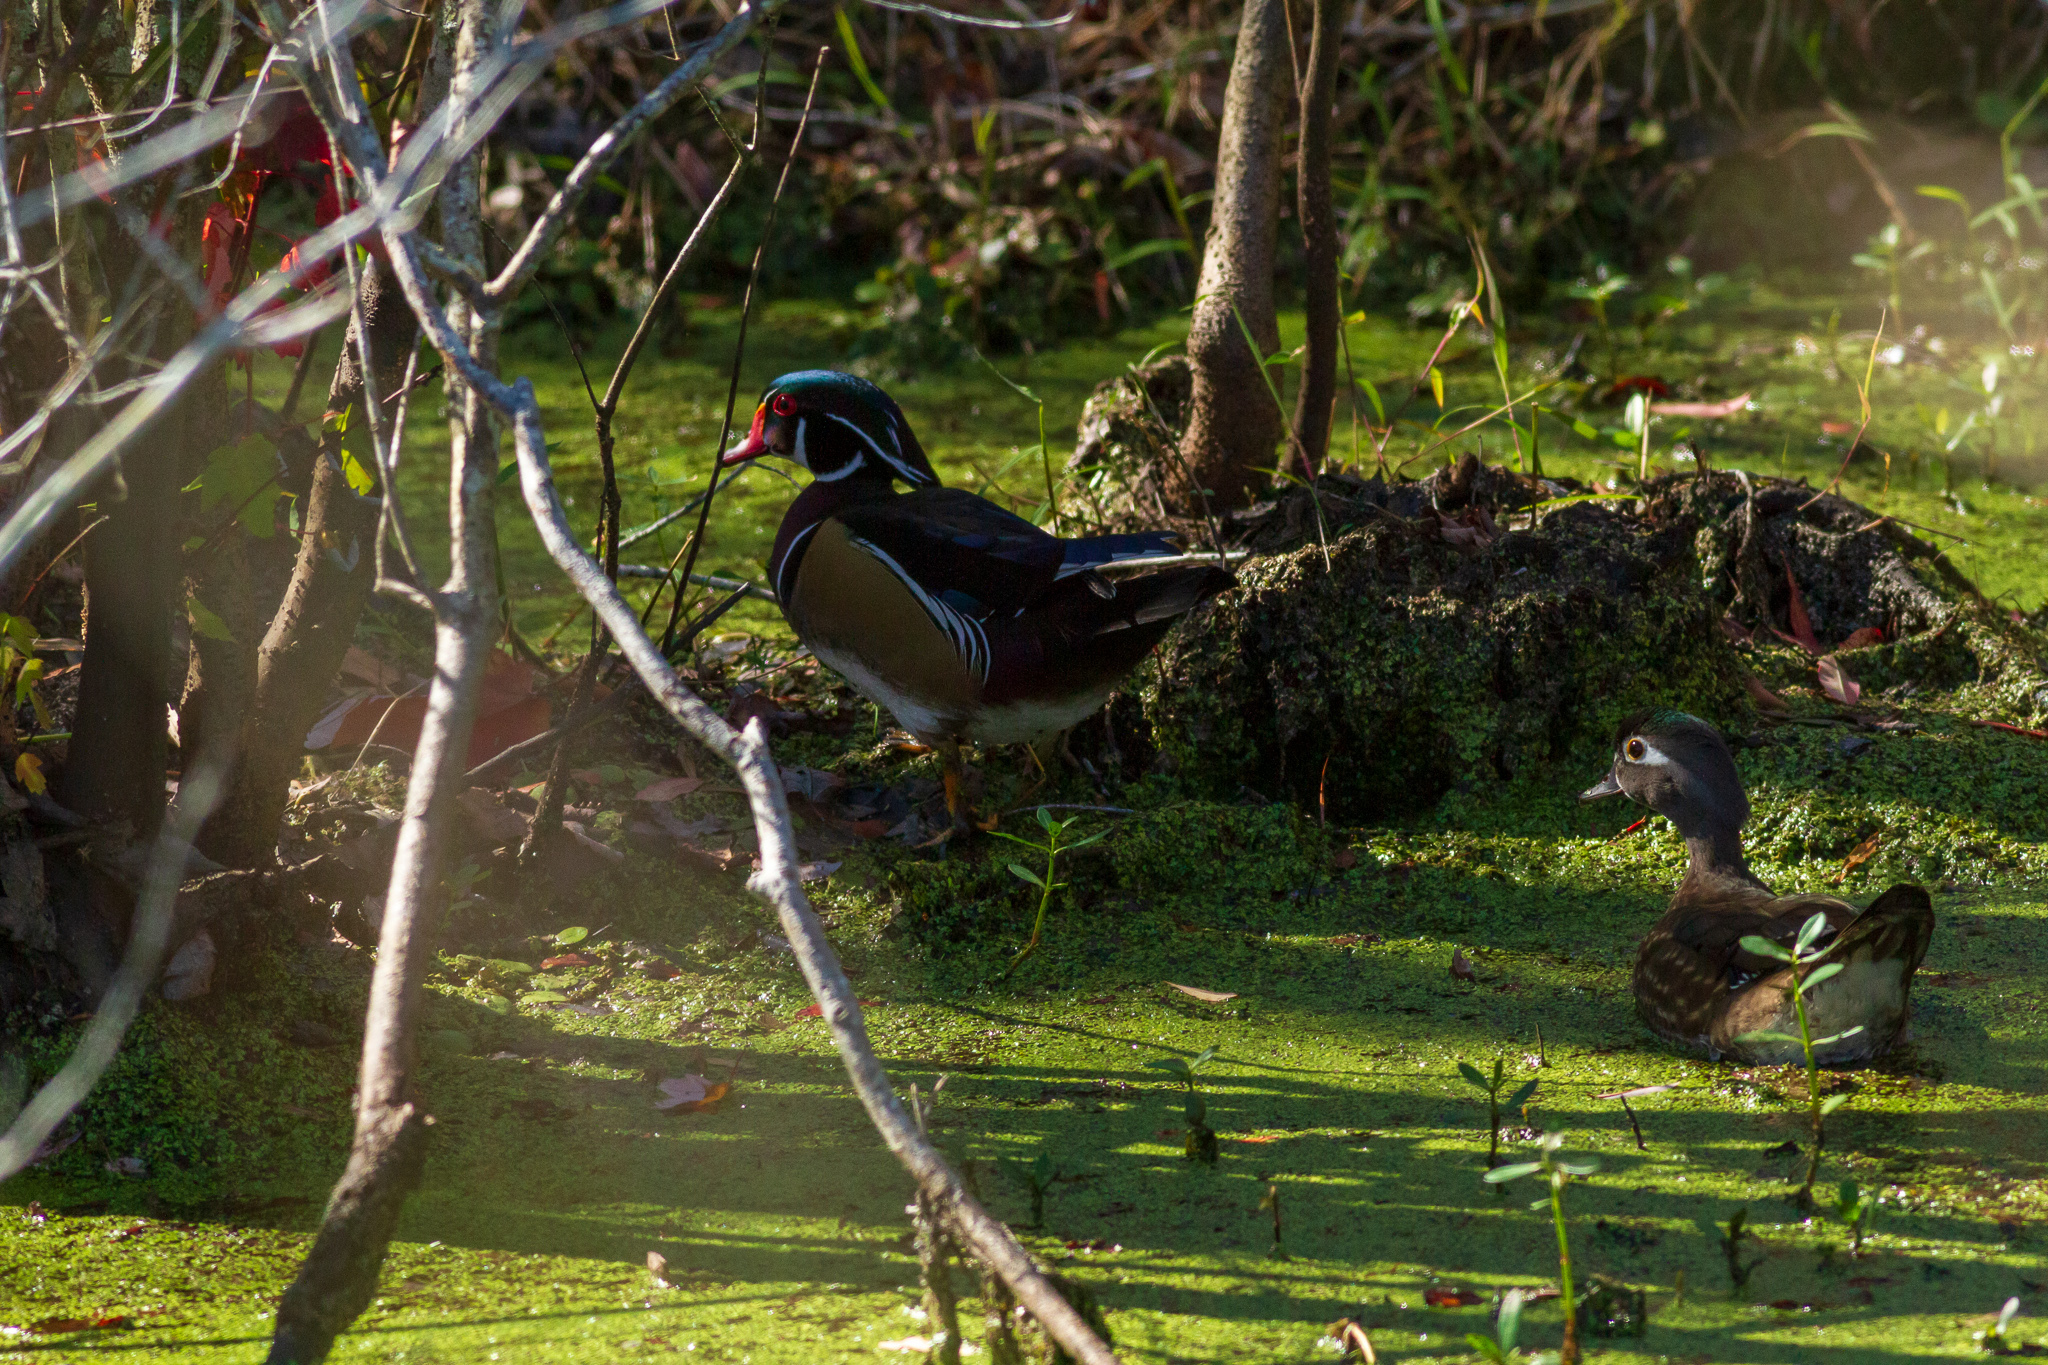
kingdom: Animalia
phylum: Chordata
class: Aves
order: Anseriformes
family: Anatidae
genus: Aix
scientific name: Aix sponsa
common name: Wood duck
